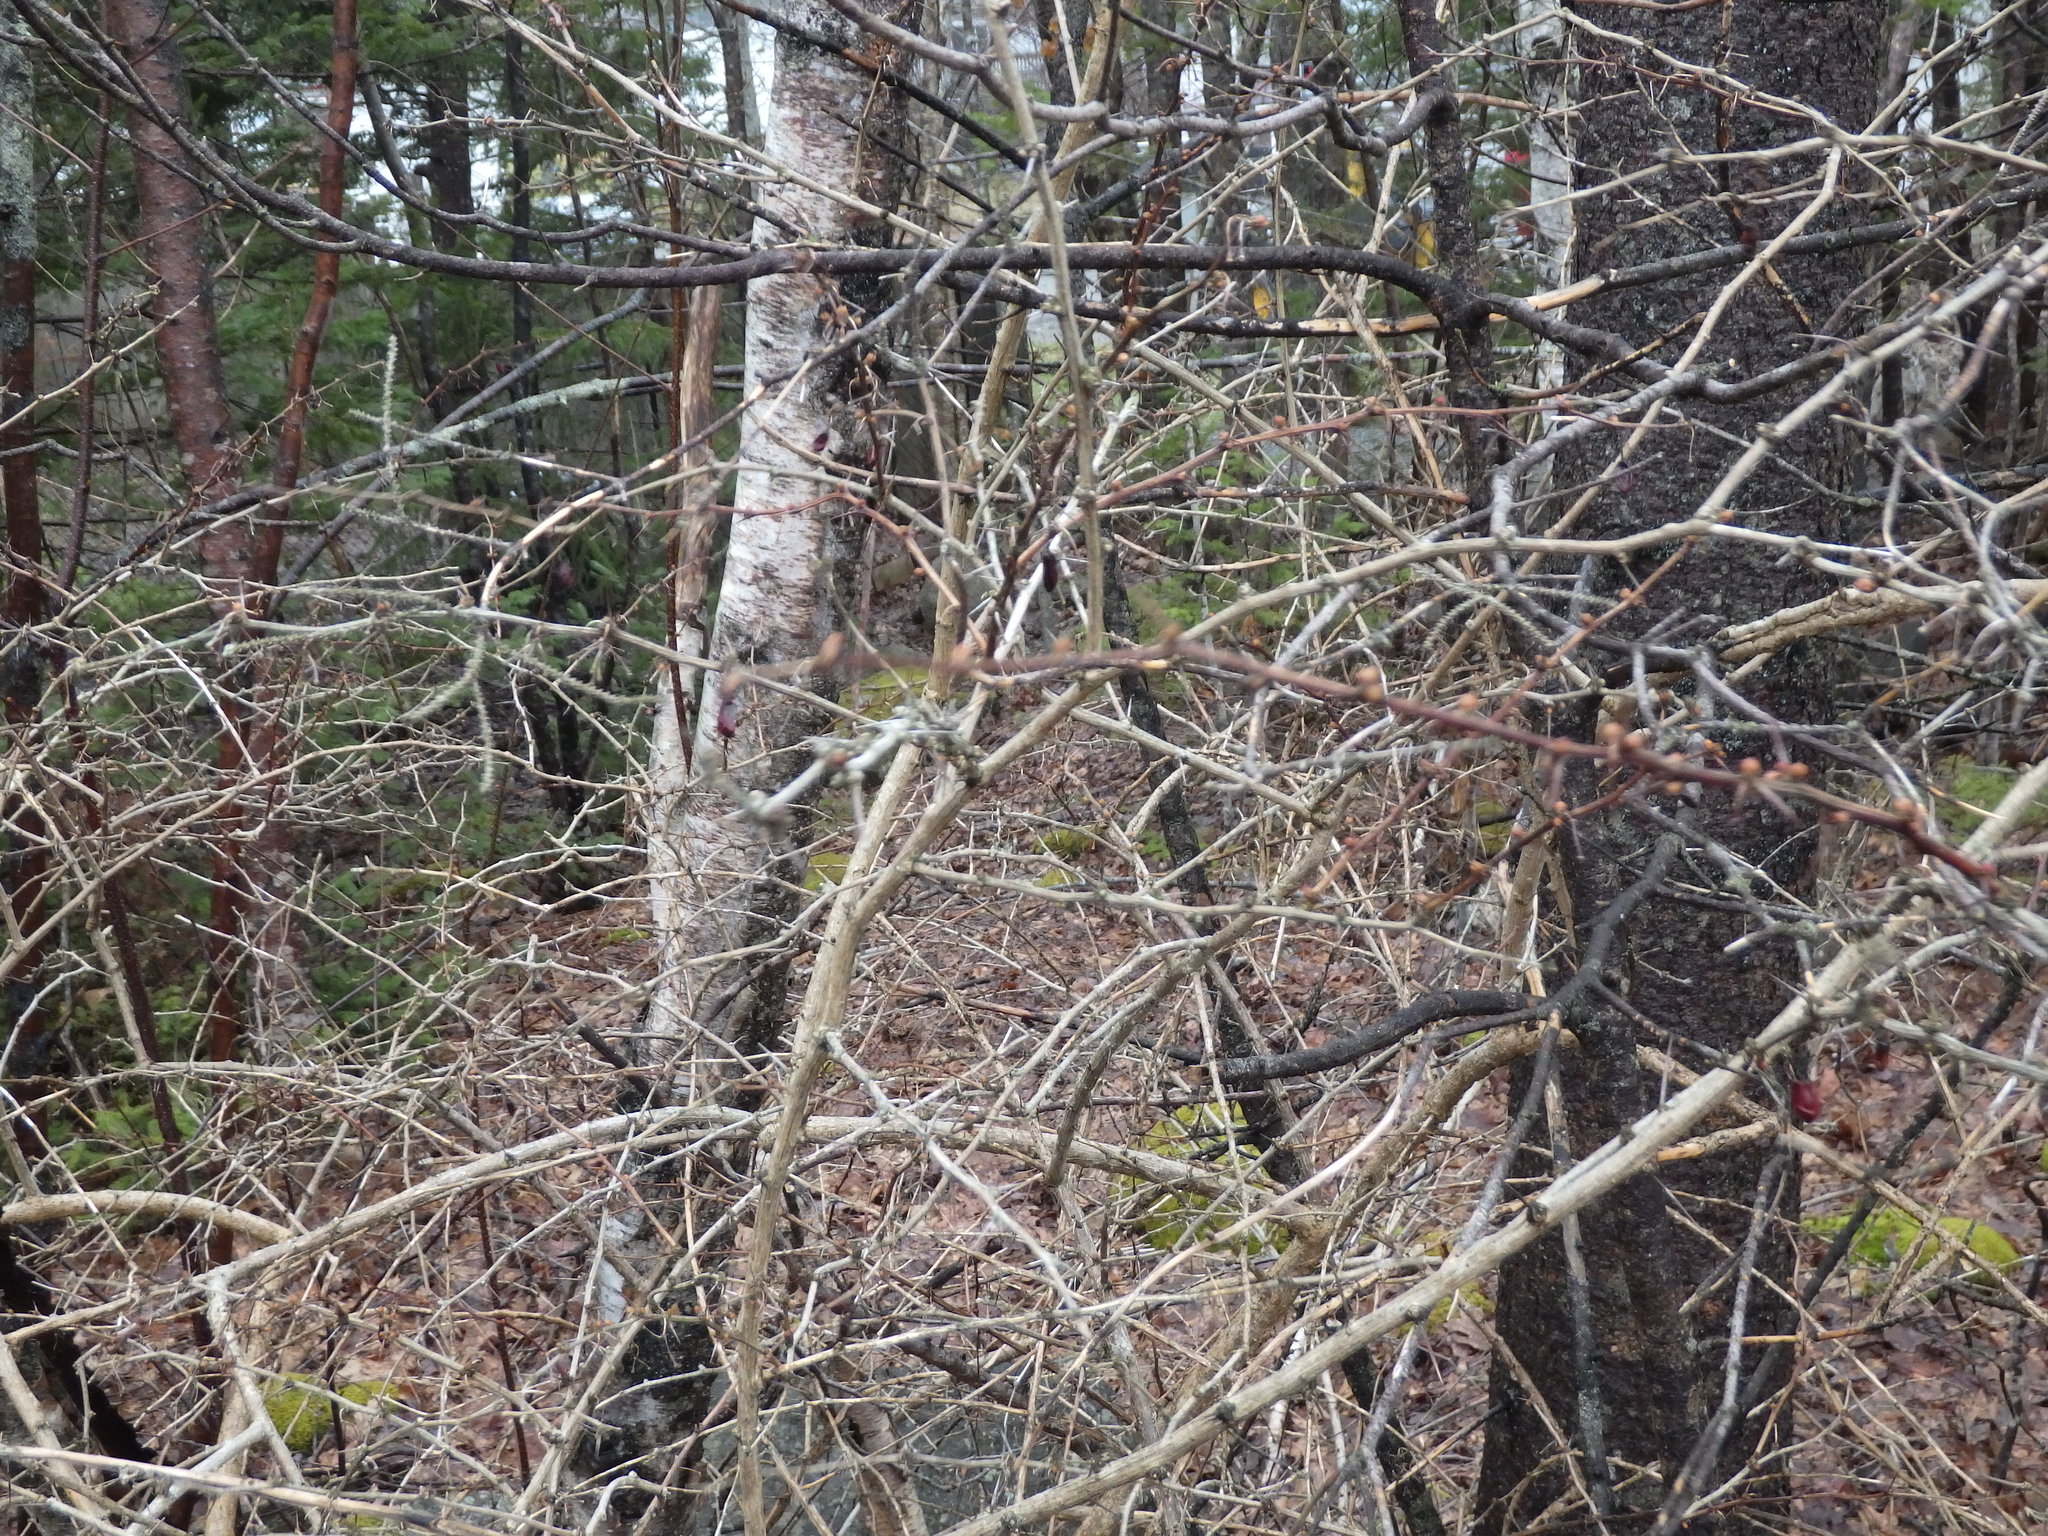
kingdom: Plantae
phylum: Tracheophyta
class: Magnoliopsida
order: Ranunculales
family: Berberidaceae
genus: Berberis
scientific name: Berberis thunbergii
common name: Japanese barberry
